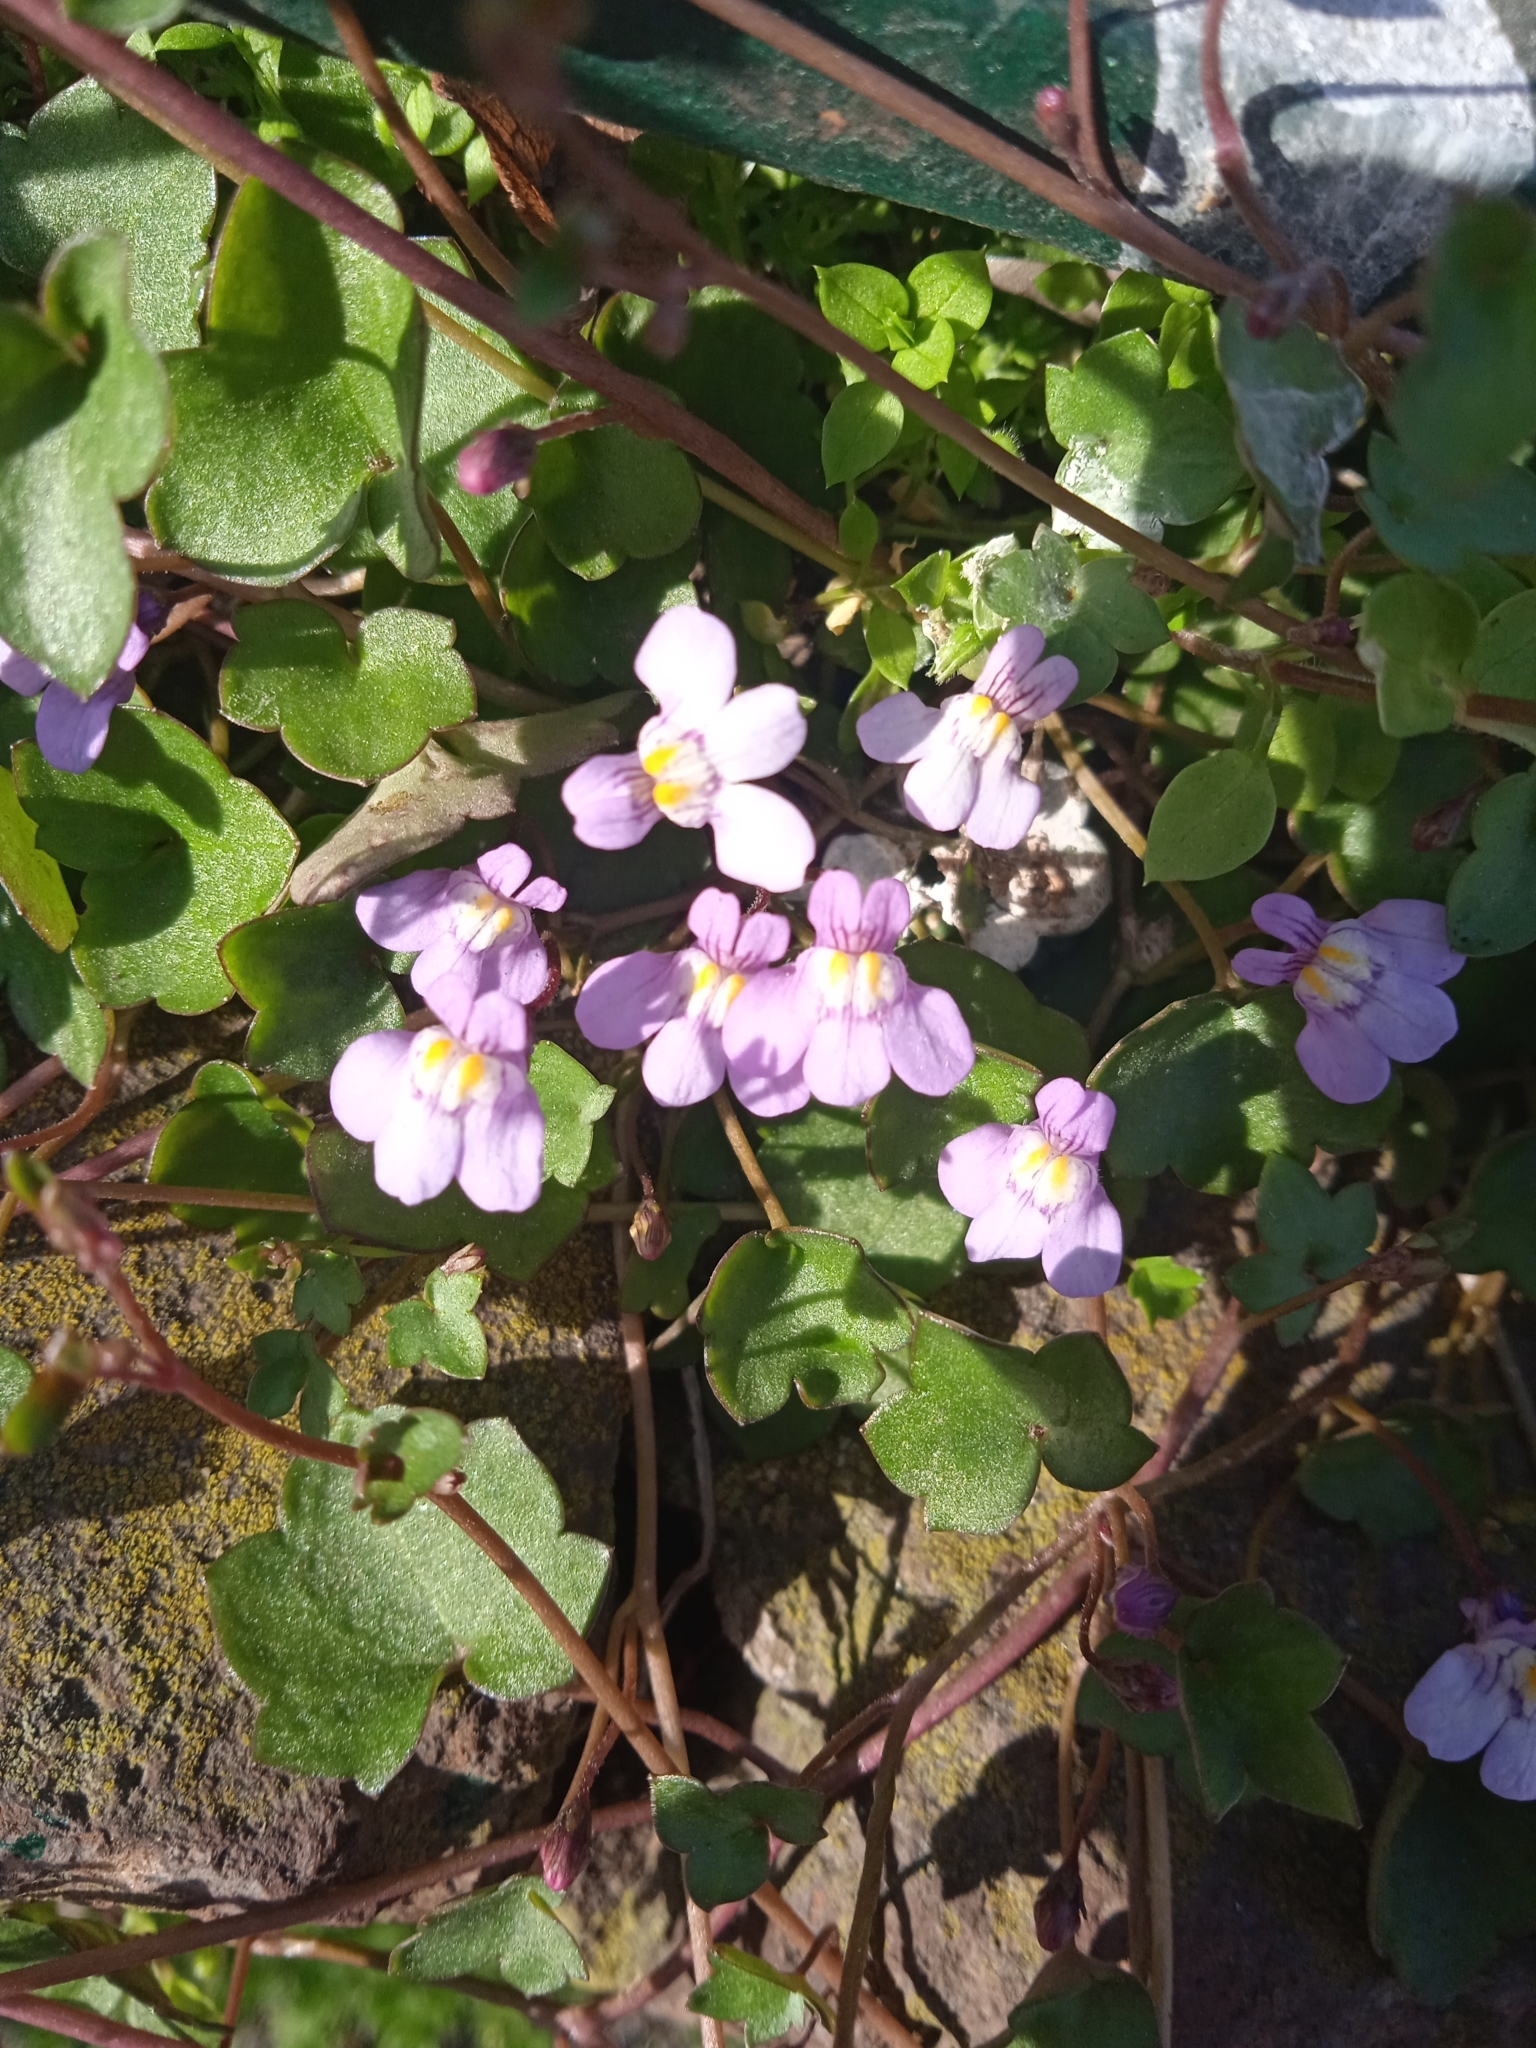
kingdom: Plantae
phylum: Tracheophyta
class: Magnoliopsida
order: Lamiales
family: Plantaginaceae
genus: Cymbalaria
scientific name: Cymbalaria muralis
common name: Ivy-leaved toadflax
